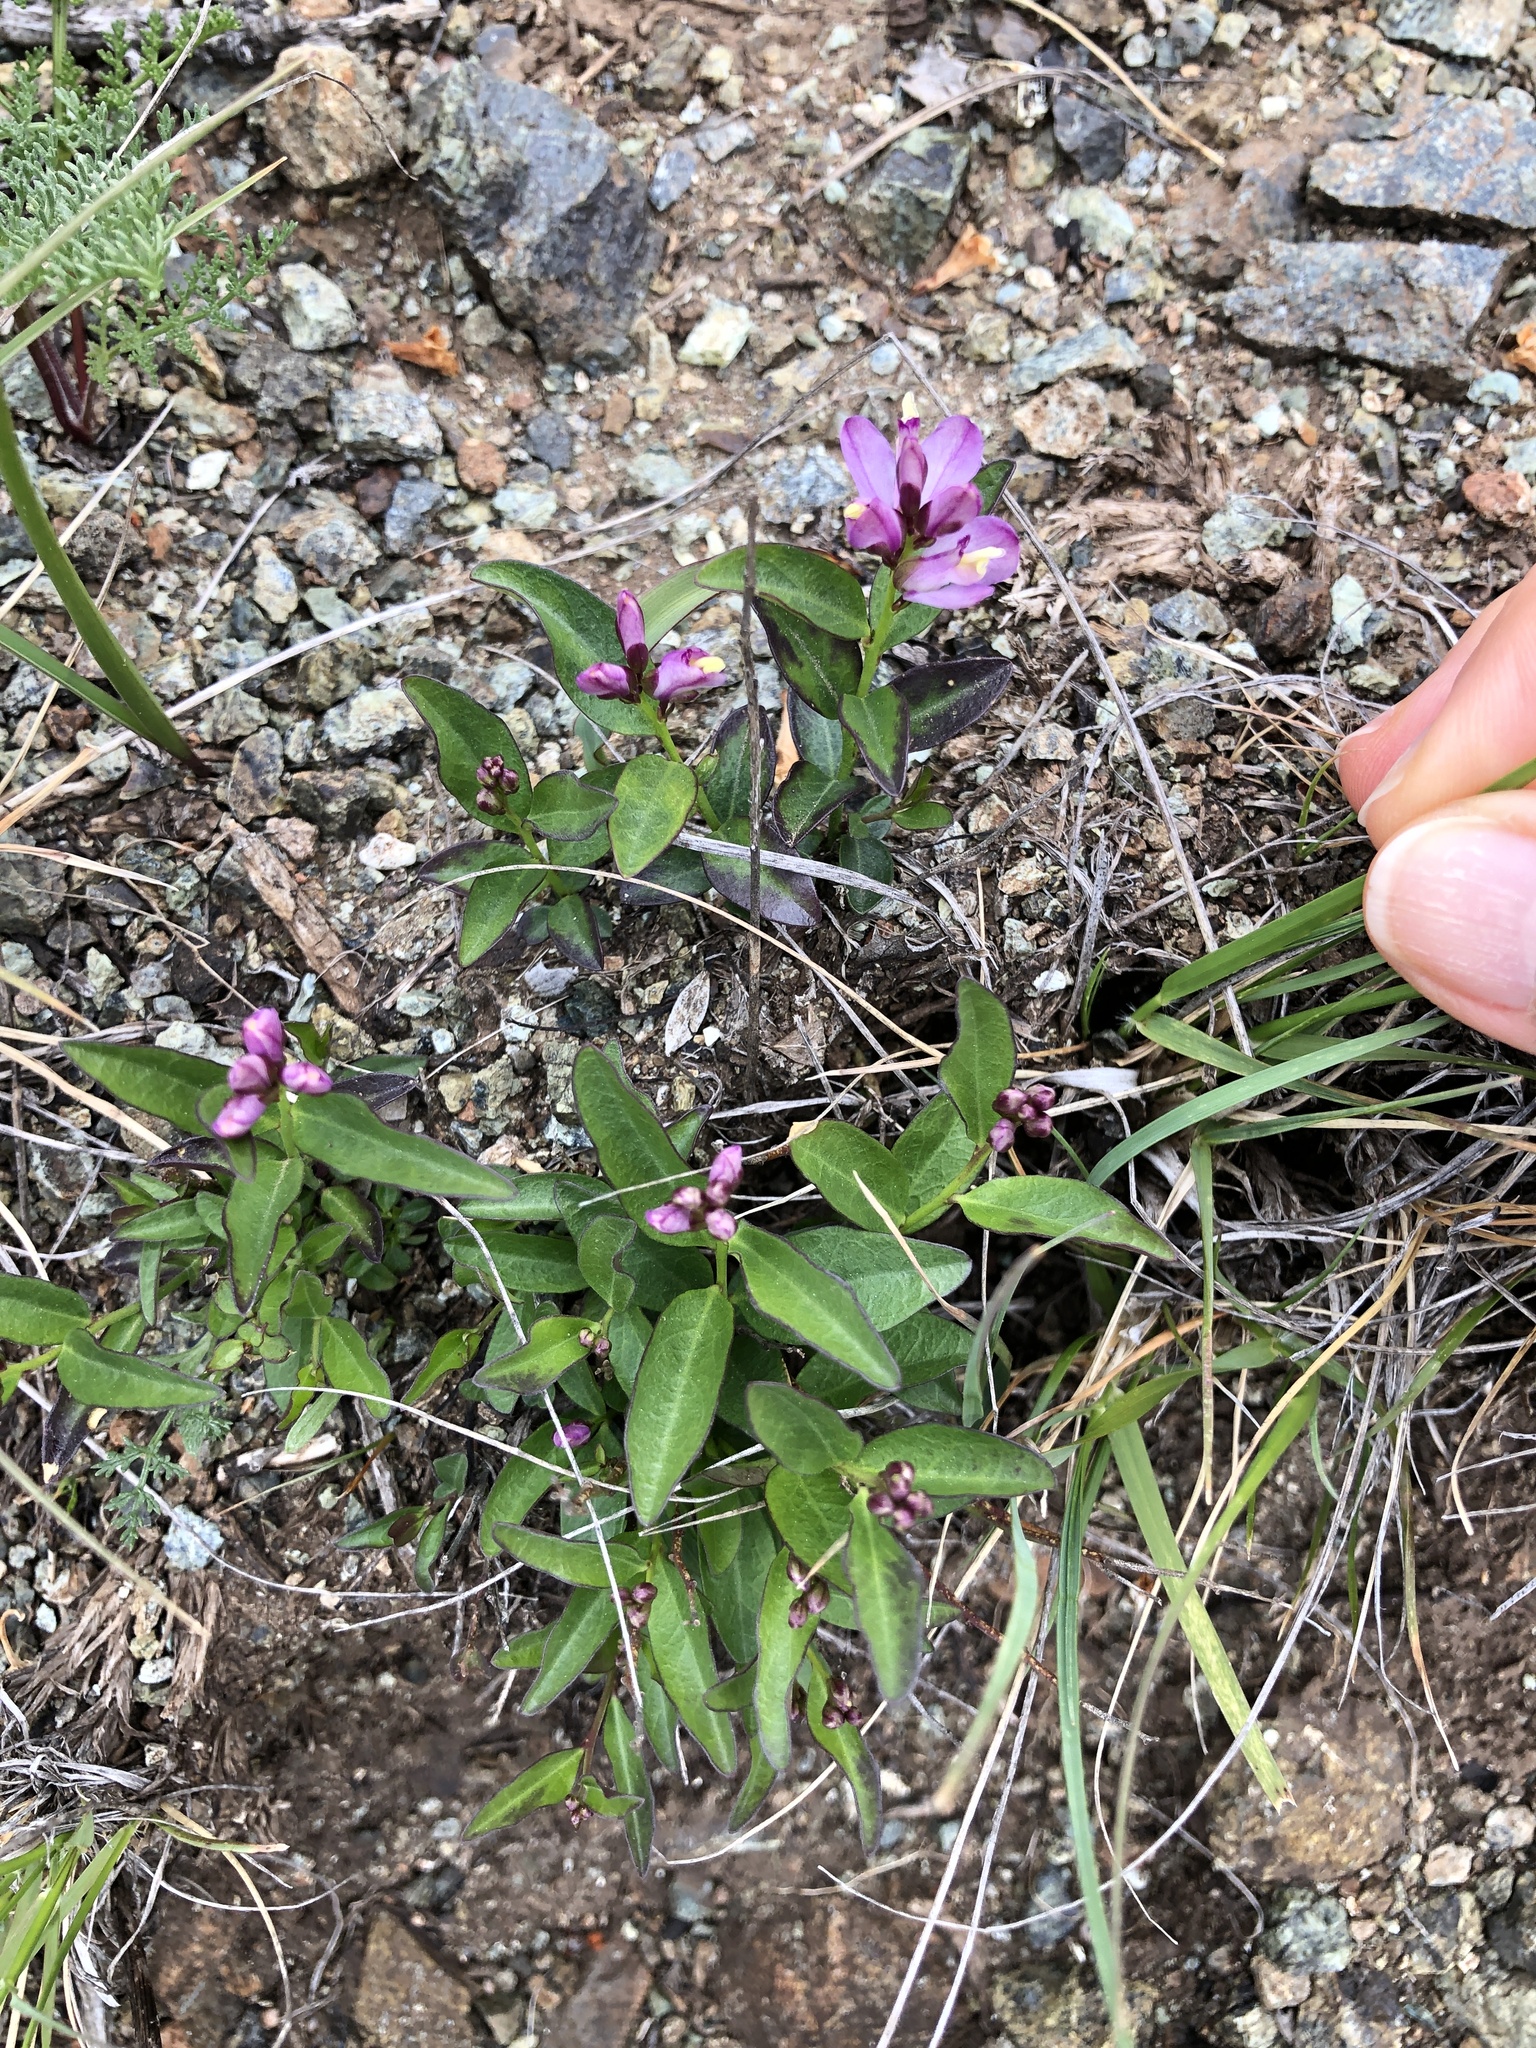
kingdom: Plantae
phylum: Tracheophyta
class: Magnoliopsida
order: Fabales
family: Polygalaceae
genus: Rhinotropis
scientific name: Rhinotropis californica
